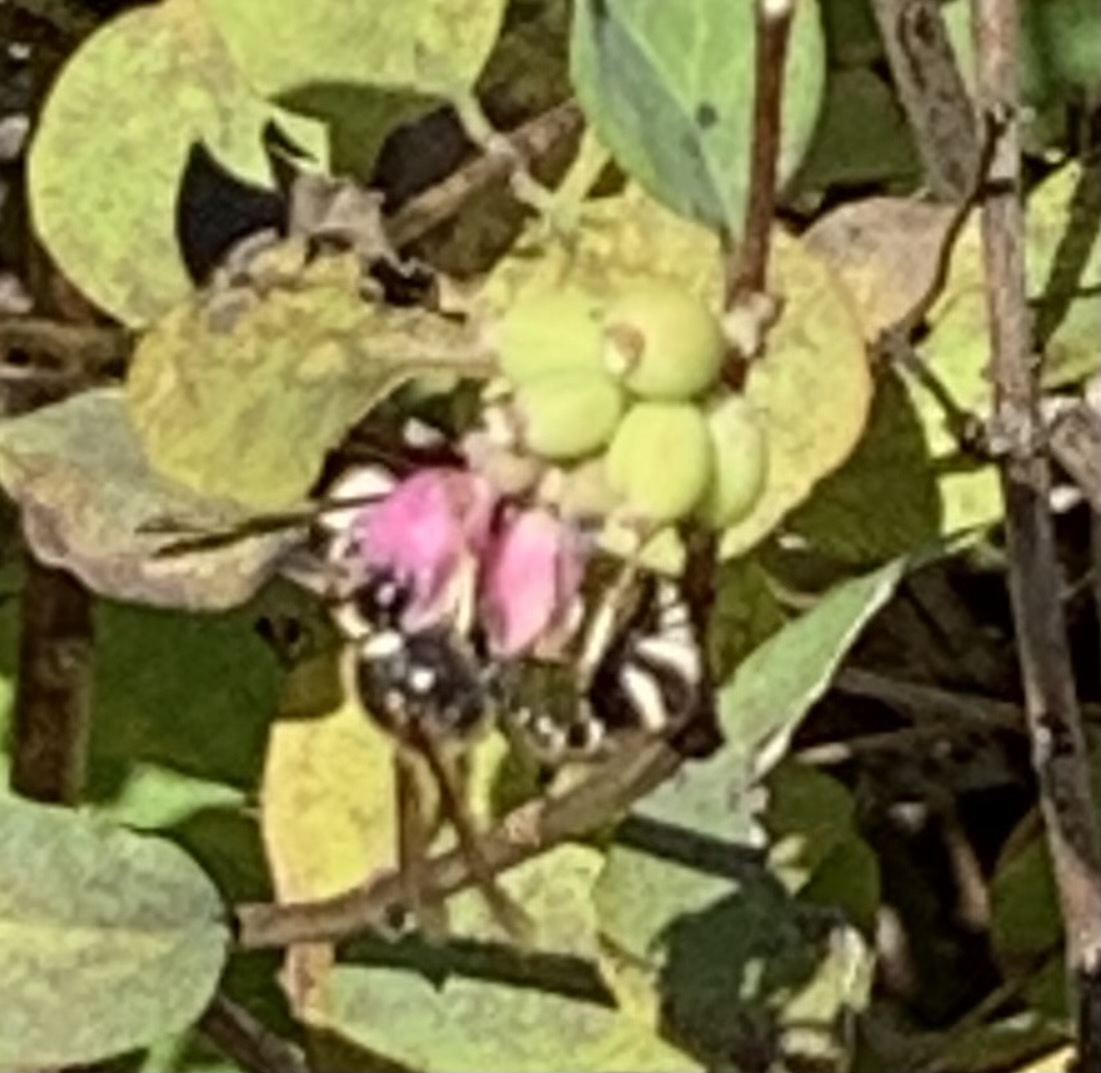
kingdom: Animalia
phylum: Arthropoda
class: Insecta
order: Hymenoptera
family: Vespidae
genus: Eumenes
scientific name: Eumenes
